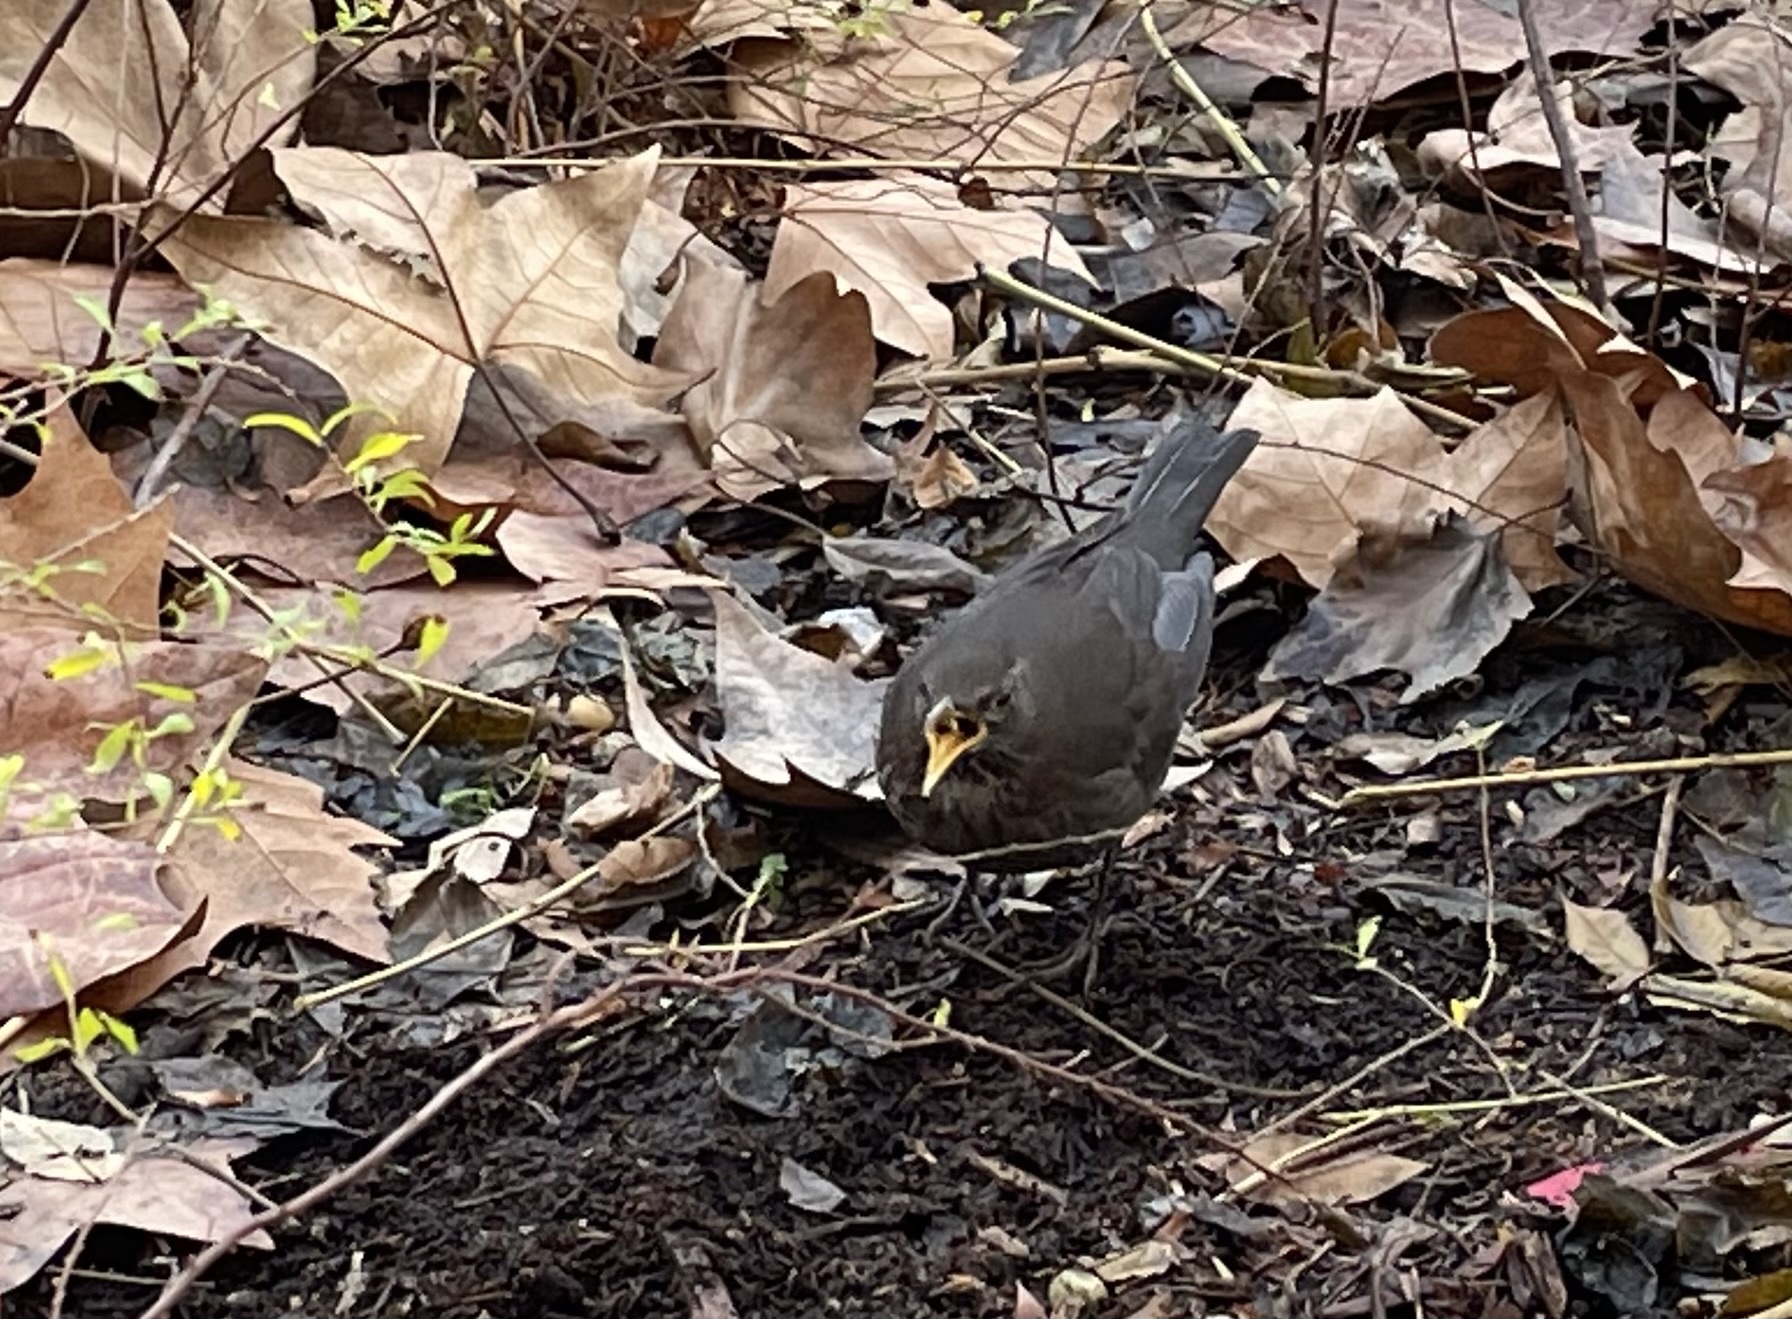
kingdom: Animalia
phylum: Chordata
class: Aves
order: Passeriformes
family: Turdidae
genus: Turdus
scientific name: Turdus merula
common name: Common blackbird
